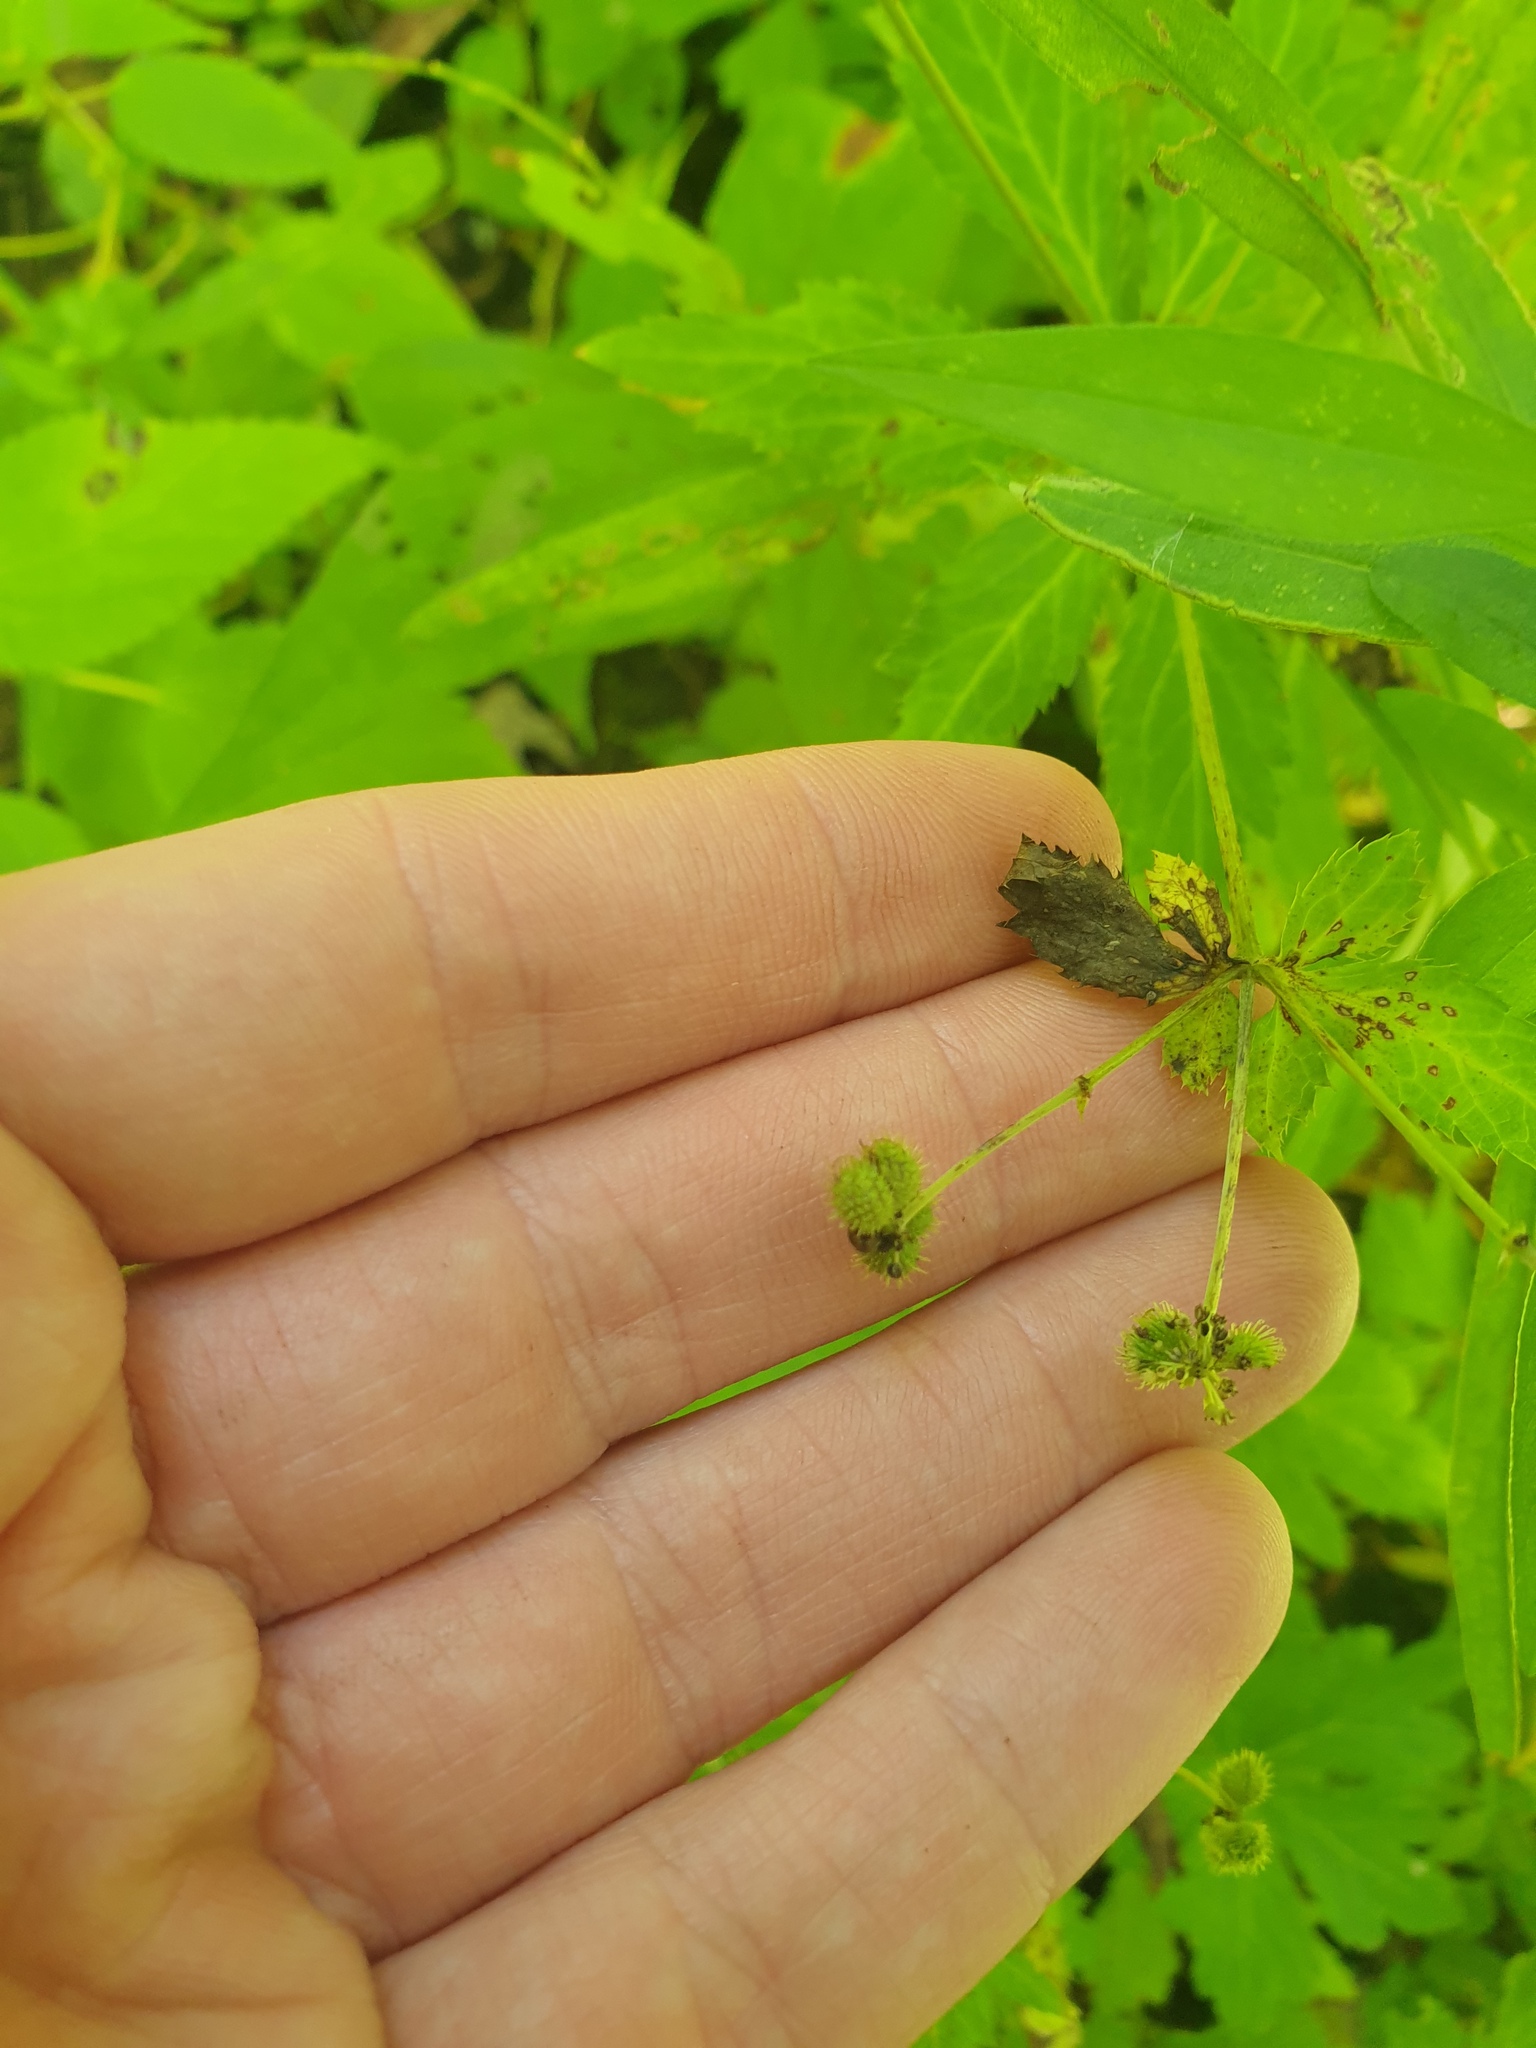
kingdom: Plantae
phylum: Tracheophyta
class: Magnoliopsida
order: Apiales
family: Apiaceae
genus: Sanicula
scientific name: Sanicula canadensis
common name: Canada sanicle
